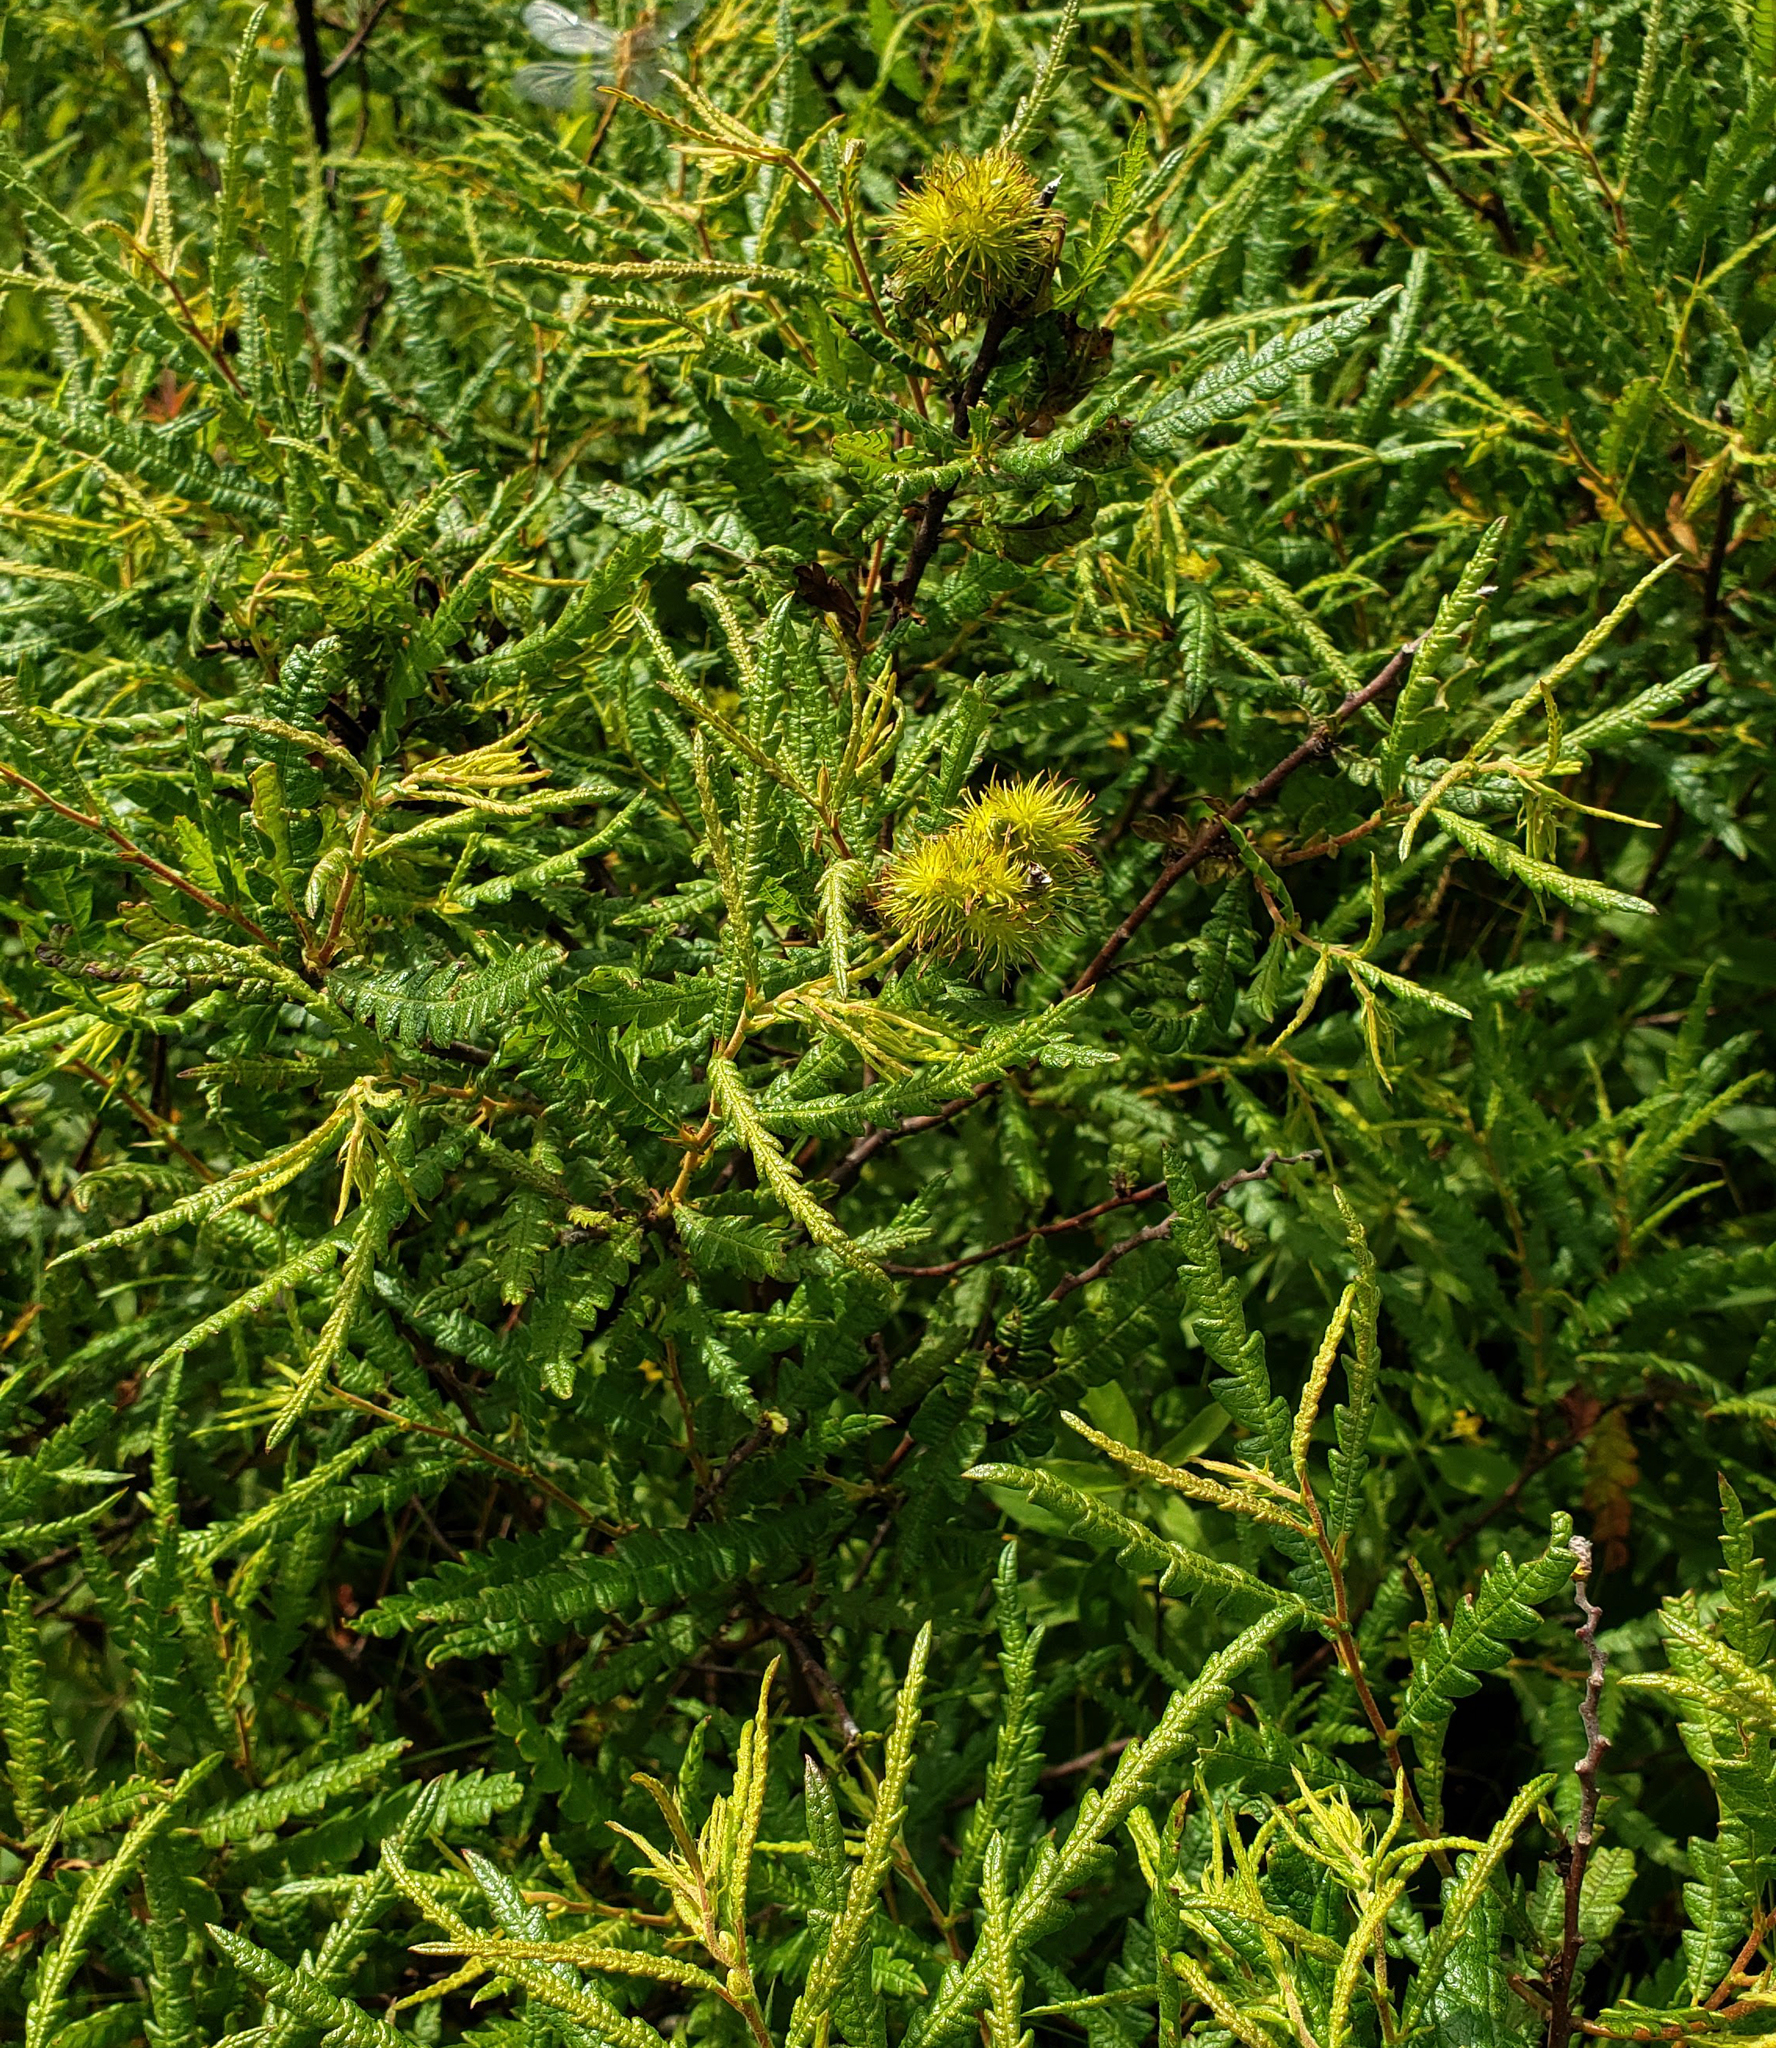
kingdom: Plantae
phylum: Tracheophyta
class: Magnoliopsida
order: Fagales
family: Myricaceae
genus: Comptonia
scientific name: Comptonia peregrina
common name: Sweet-fern
